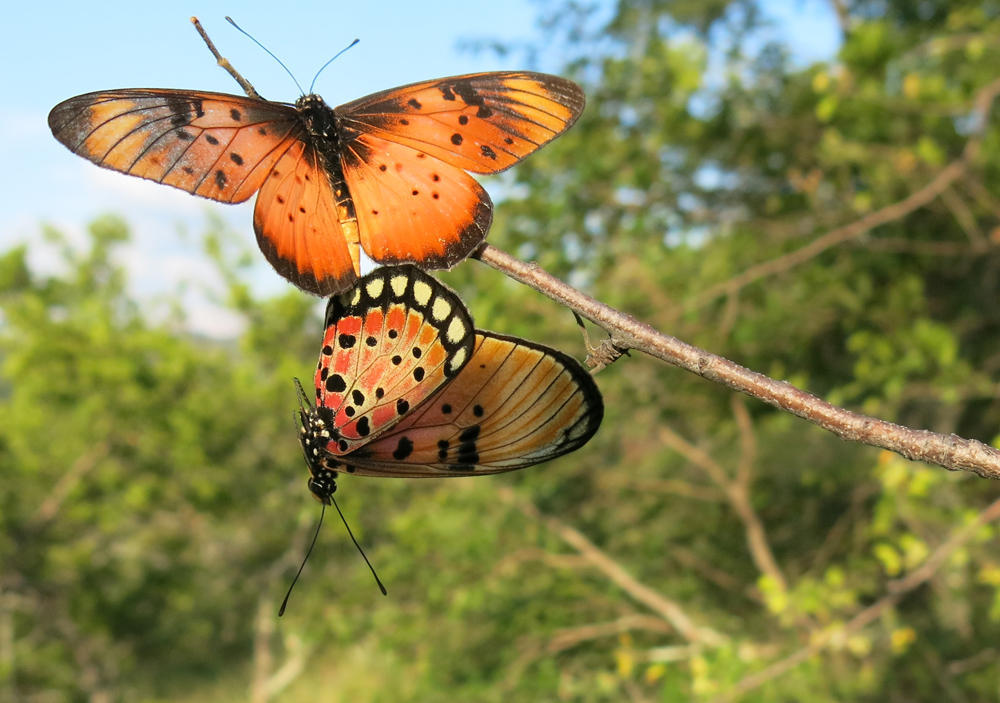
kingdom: Animalia
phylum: Arthropoda
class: Insecta
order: Lepidoptera
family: Nymphalidae
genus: Stephenia
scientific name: Stephenia
